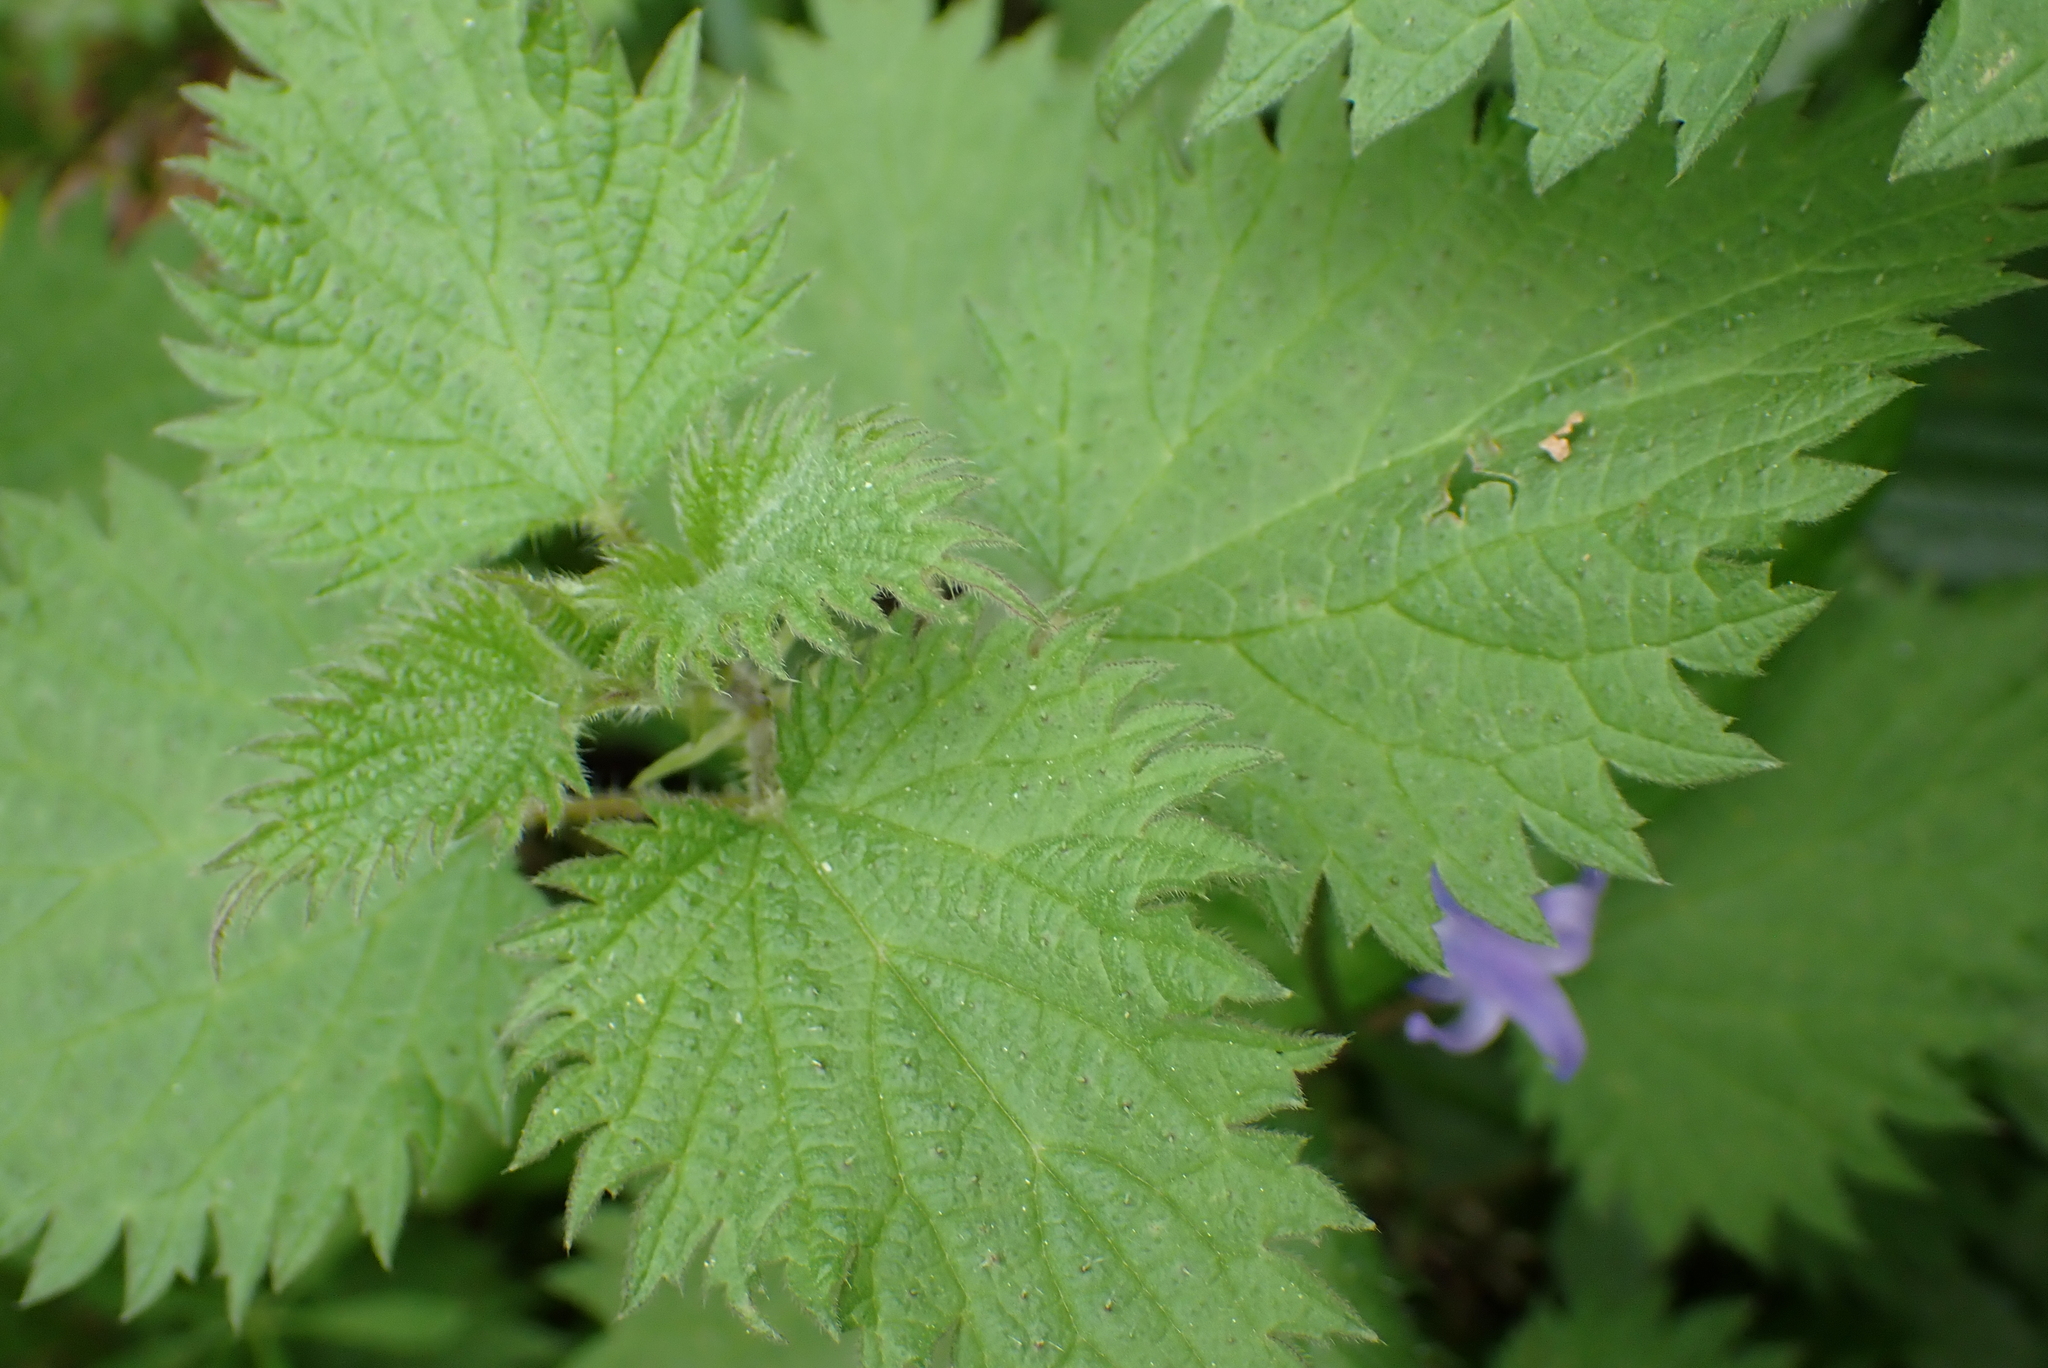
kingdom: Plantae
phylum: Tracheophyta
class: Magnoliopsida
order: Rosales
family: Urticaceae
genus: Urtica
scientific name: Urtica dioica
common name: Common nettle
